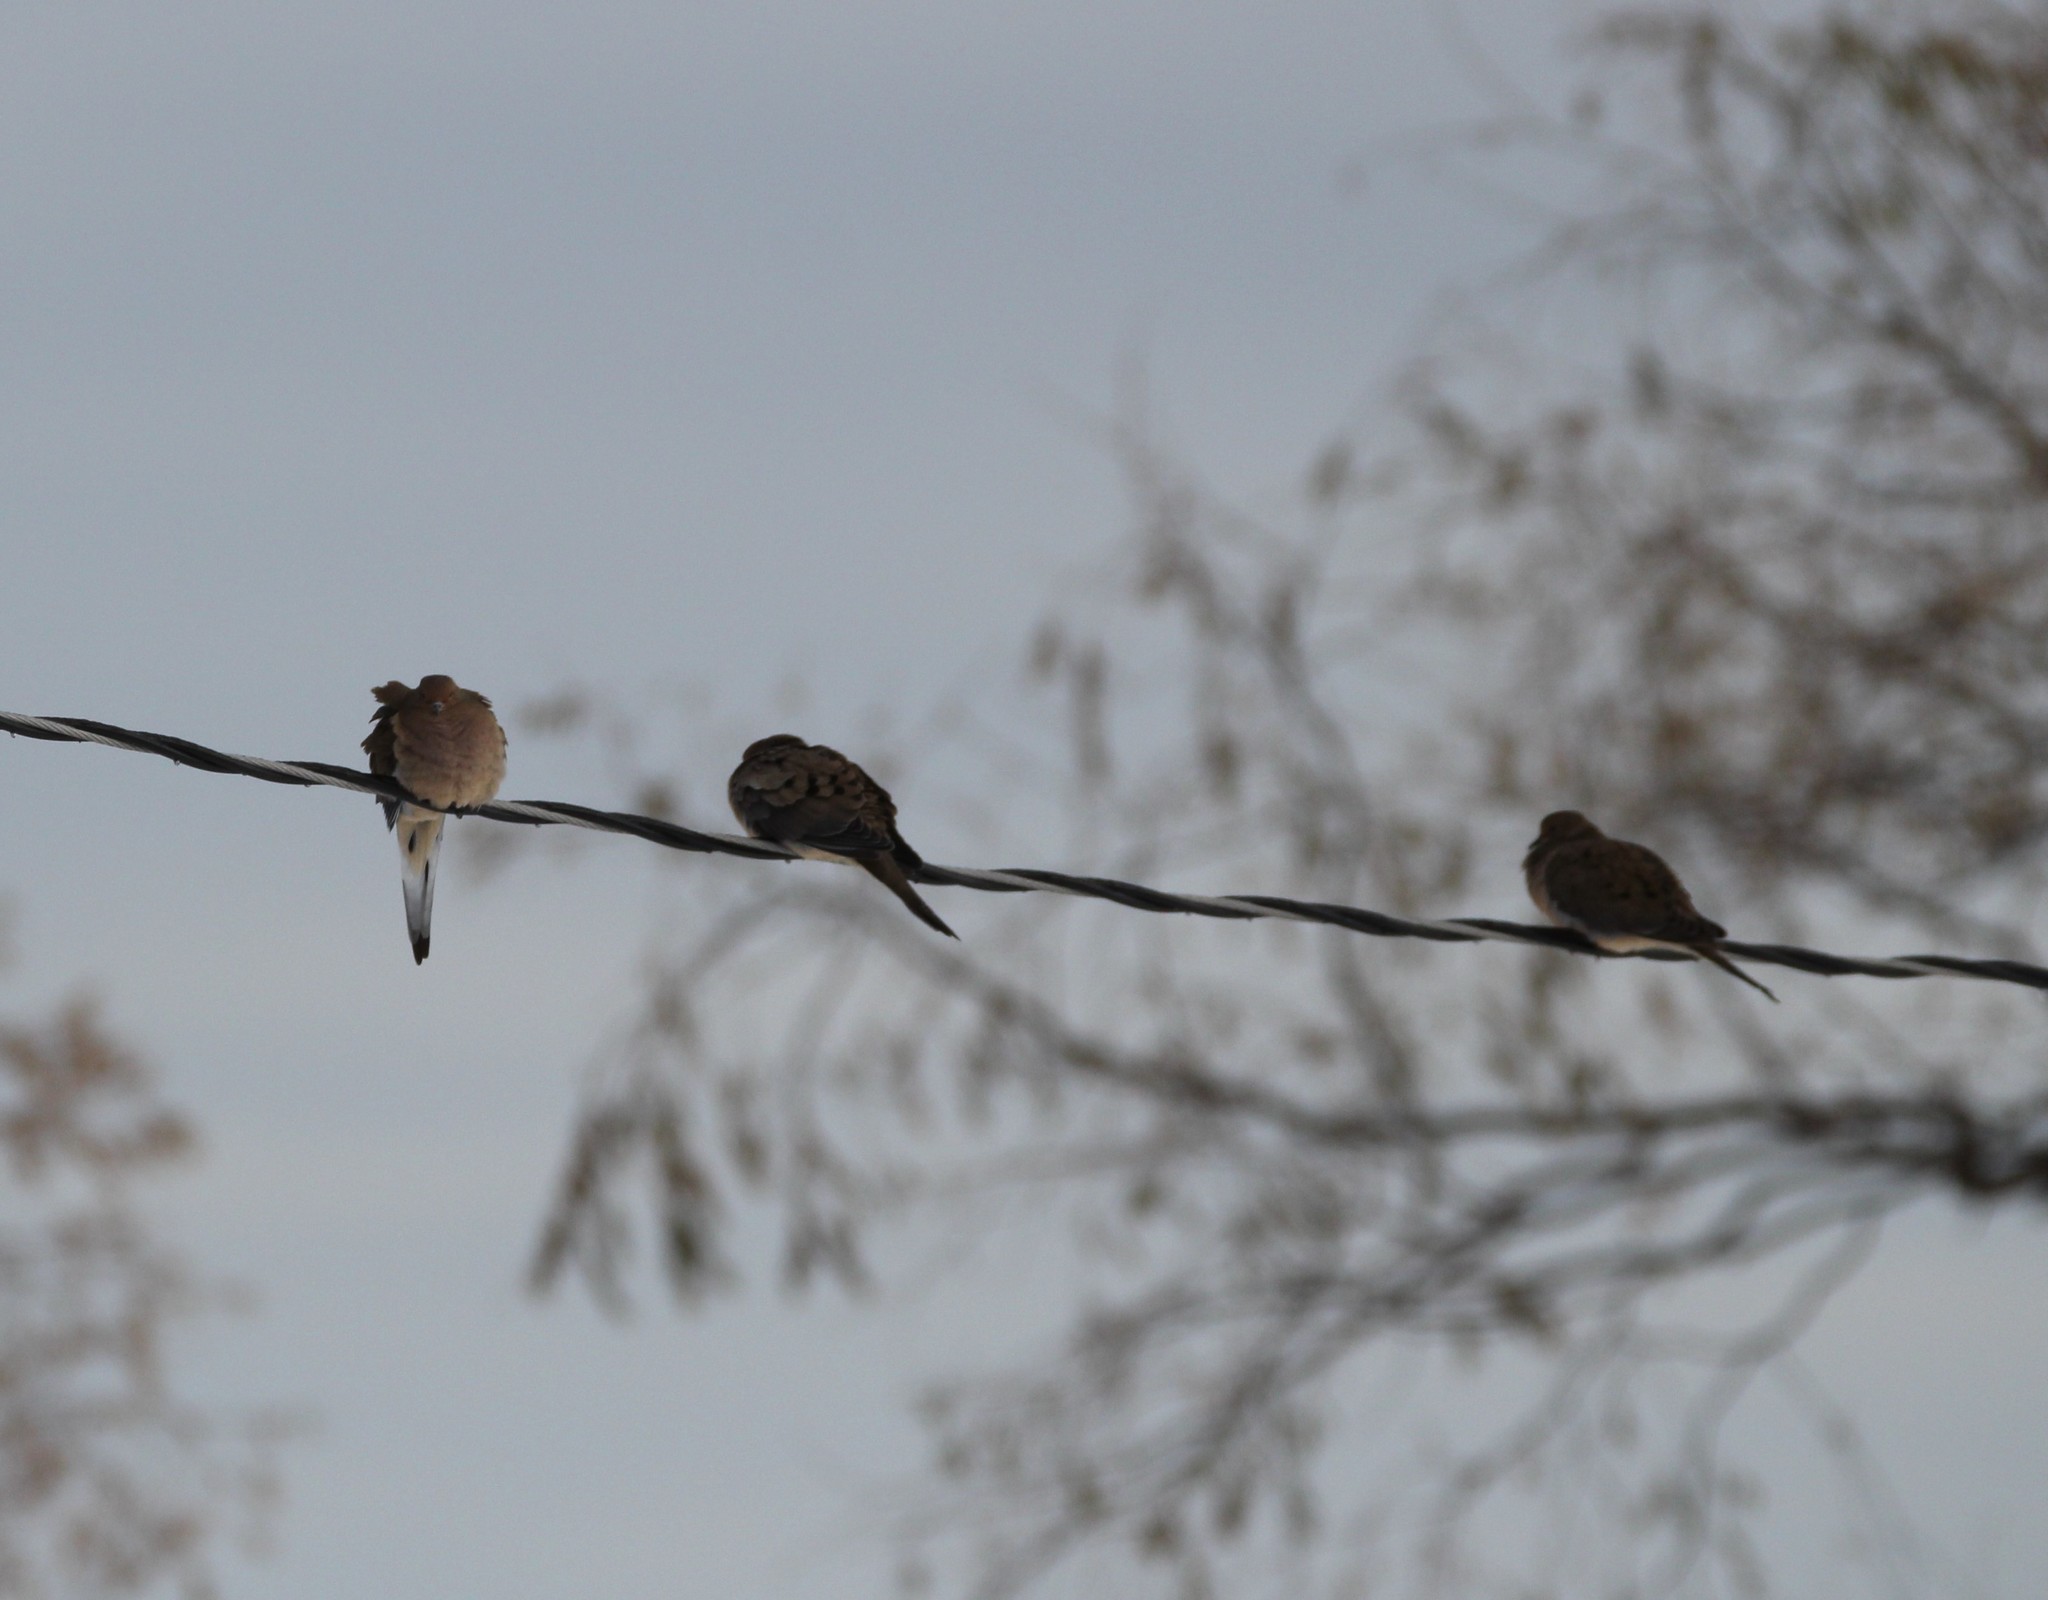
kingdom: Animalia
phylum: Chordata
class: Aves
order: Columbiformes
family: Columbidae
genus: Zenaida
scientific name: Zenaida macroura
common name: Mourning dove
